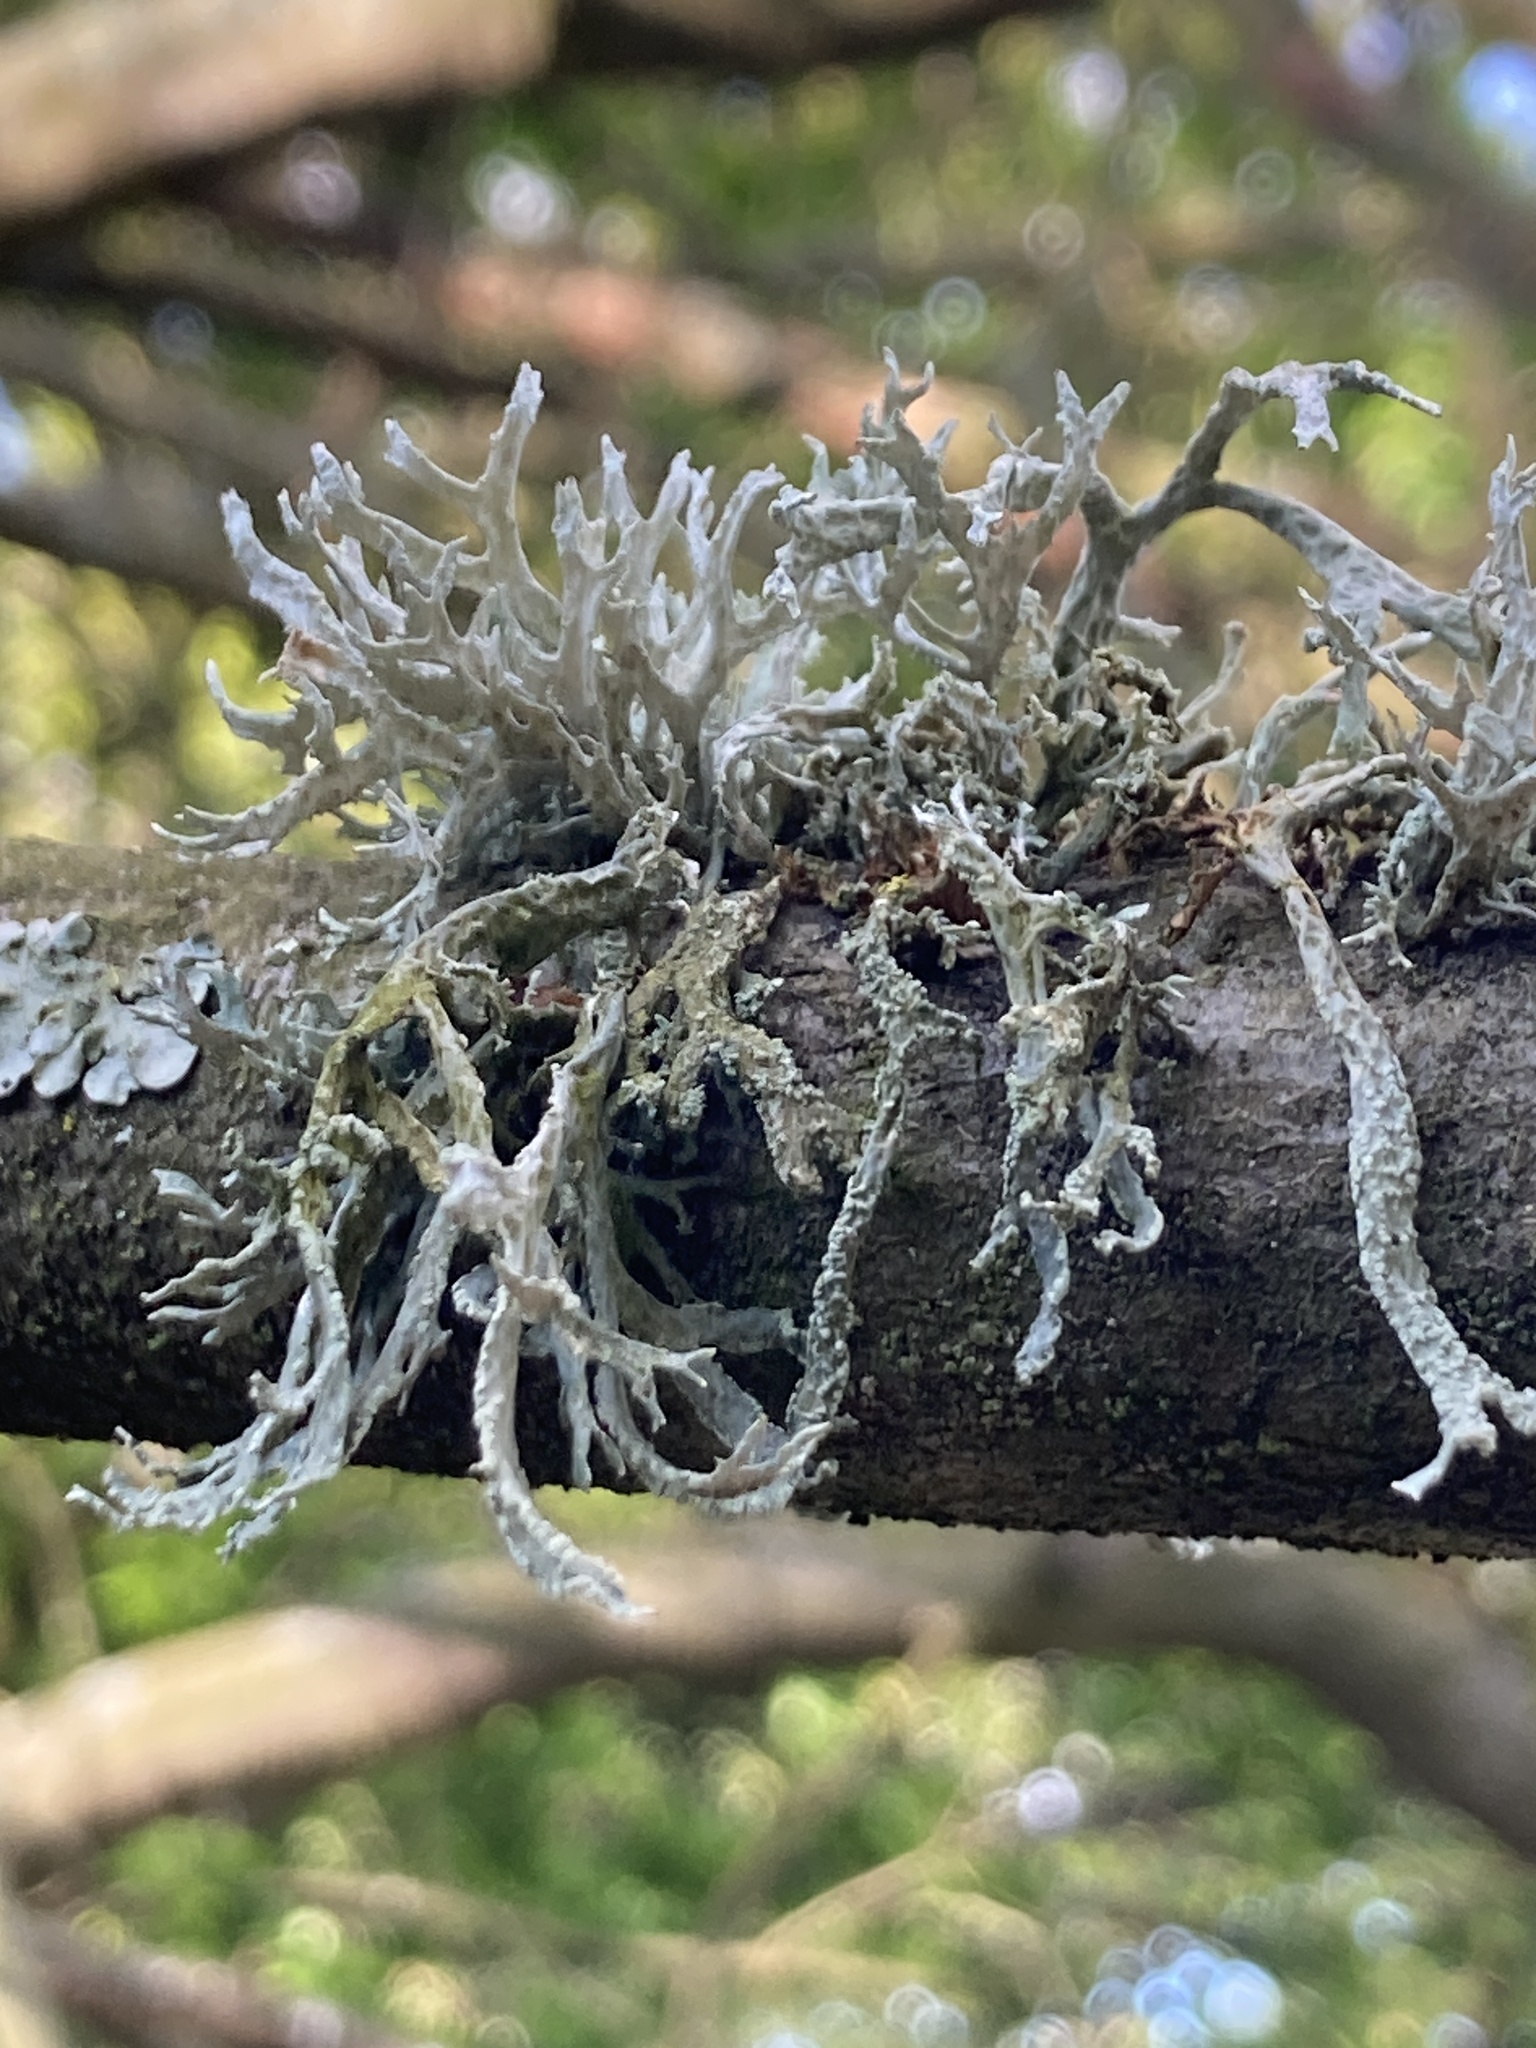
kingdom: Fungi
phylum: Ascomycota
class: Lecanoromycetes
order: Lecanorales
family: Parmeliaceae
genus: Evernia
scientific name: Evernia prunastri
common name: Oak moss
